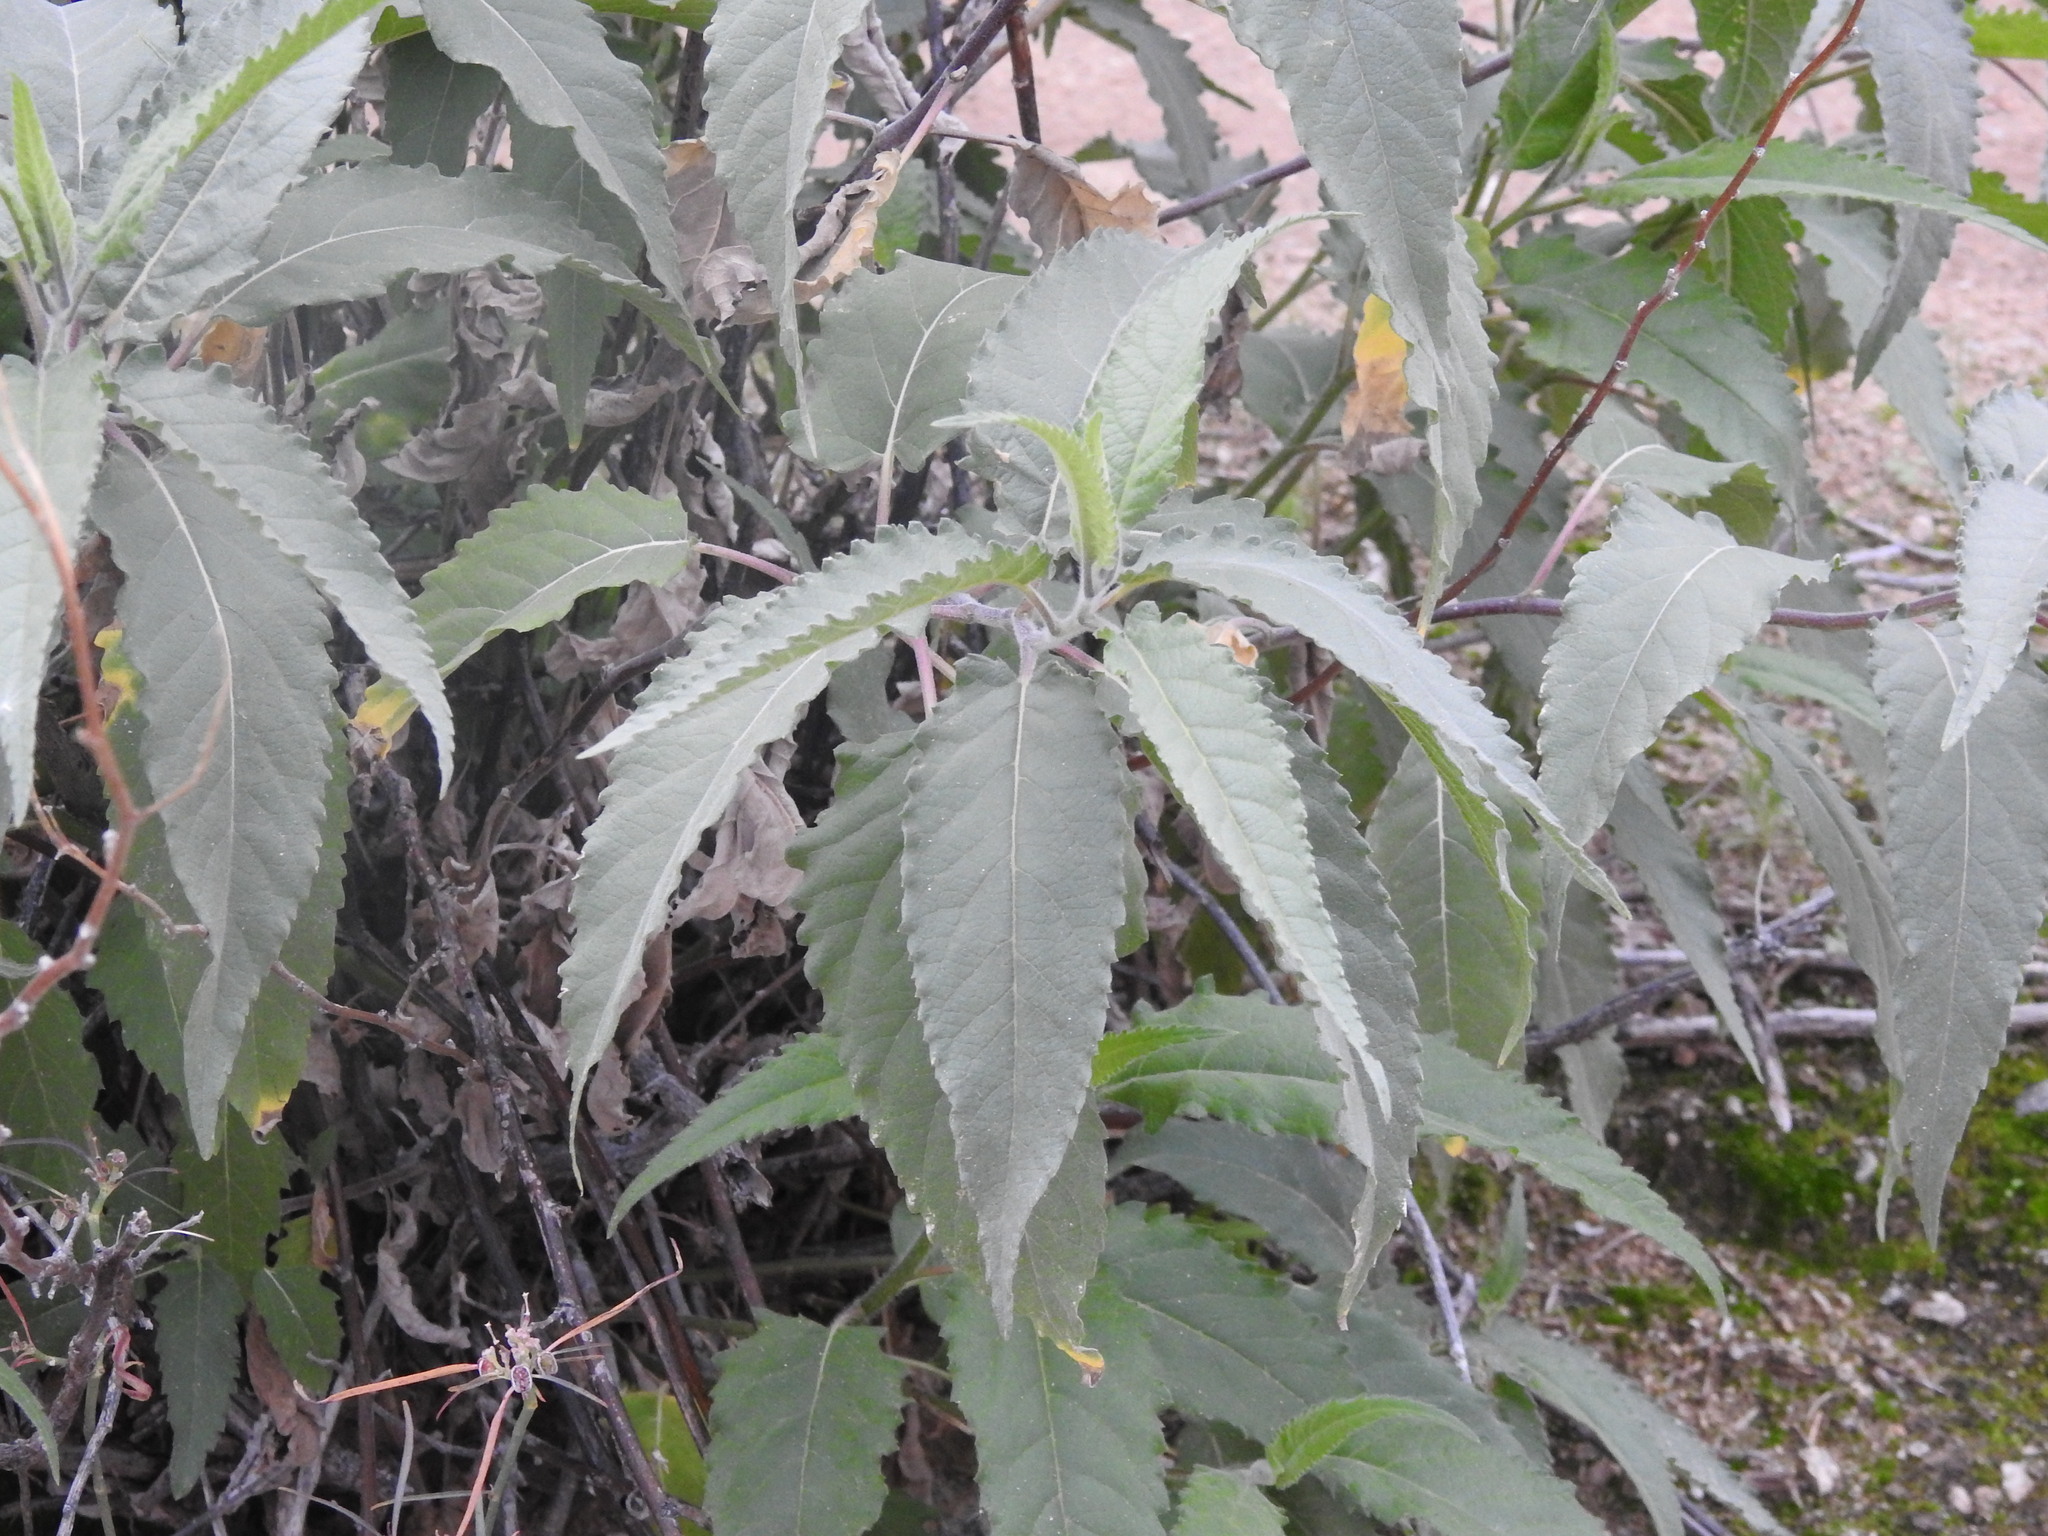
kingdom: Plantae
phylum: Tracheophyta
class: Magnoliopsida
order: Asterales
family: Asteraceae
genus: Ambrosia
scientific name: Ambrosia ambrosioides
